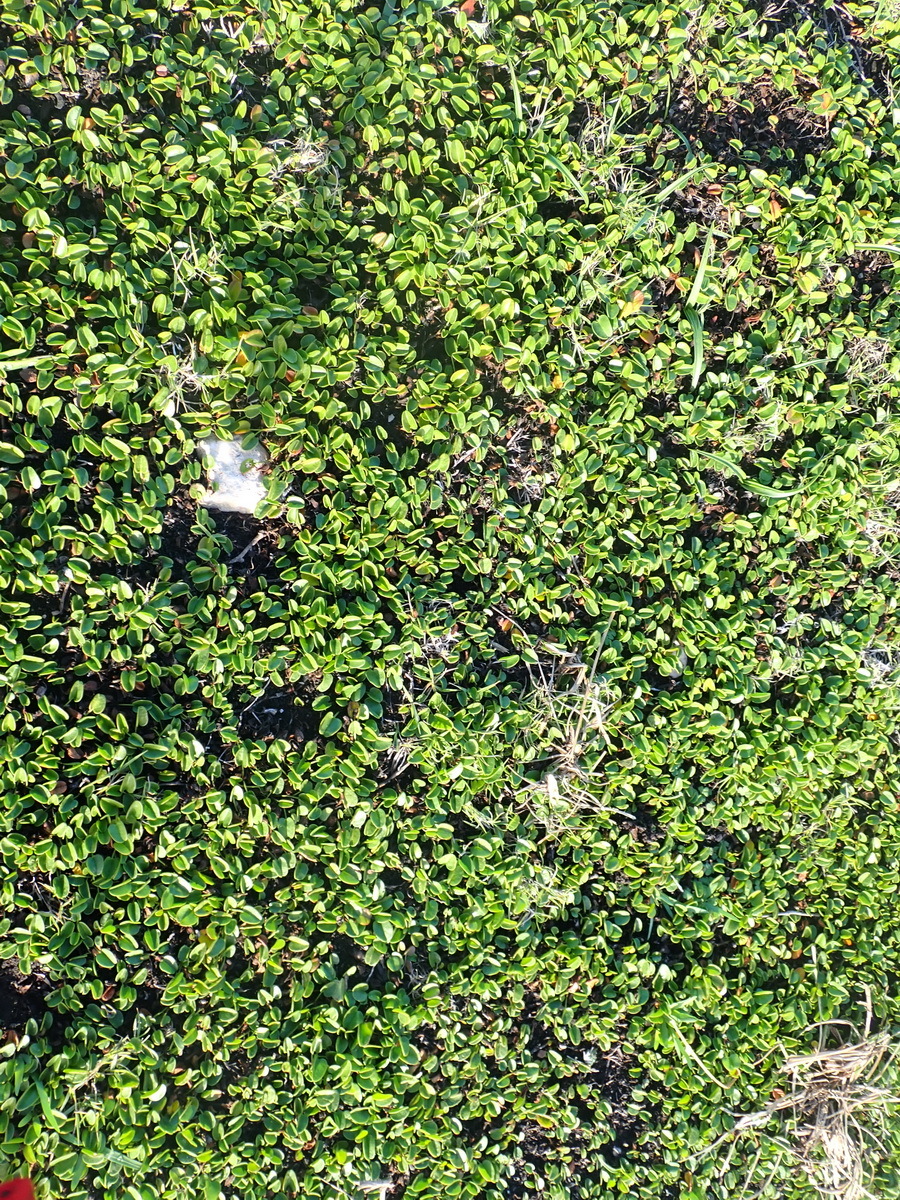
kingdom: Plantae
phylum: Tracheophyta
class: Magnoliopsida
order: Solanales
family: Convolvulaceae
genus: Falkia
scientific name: Falkia repens
